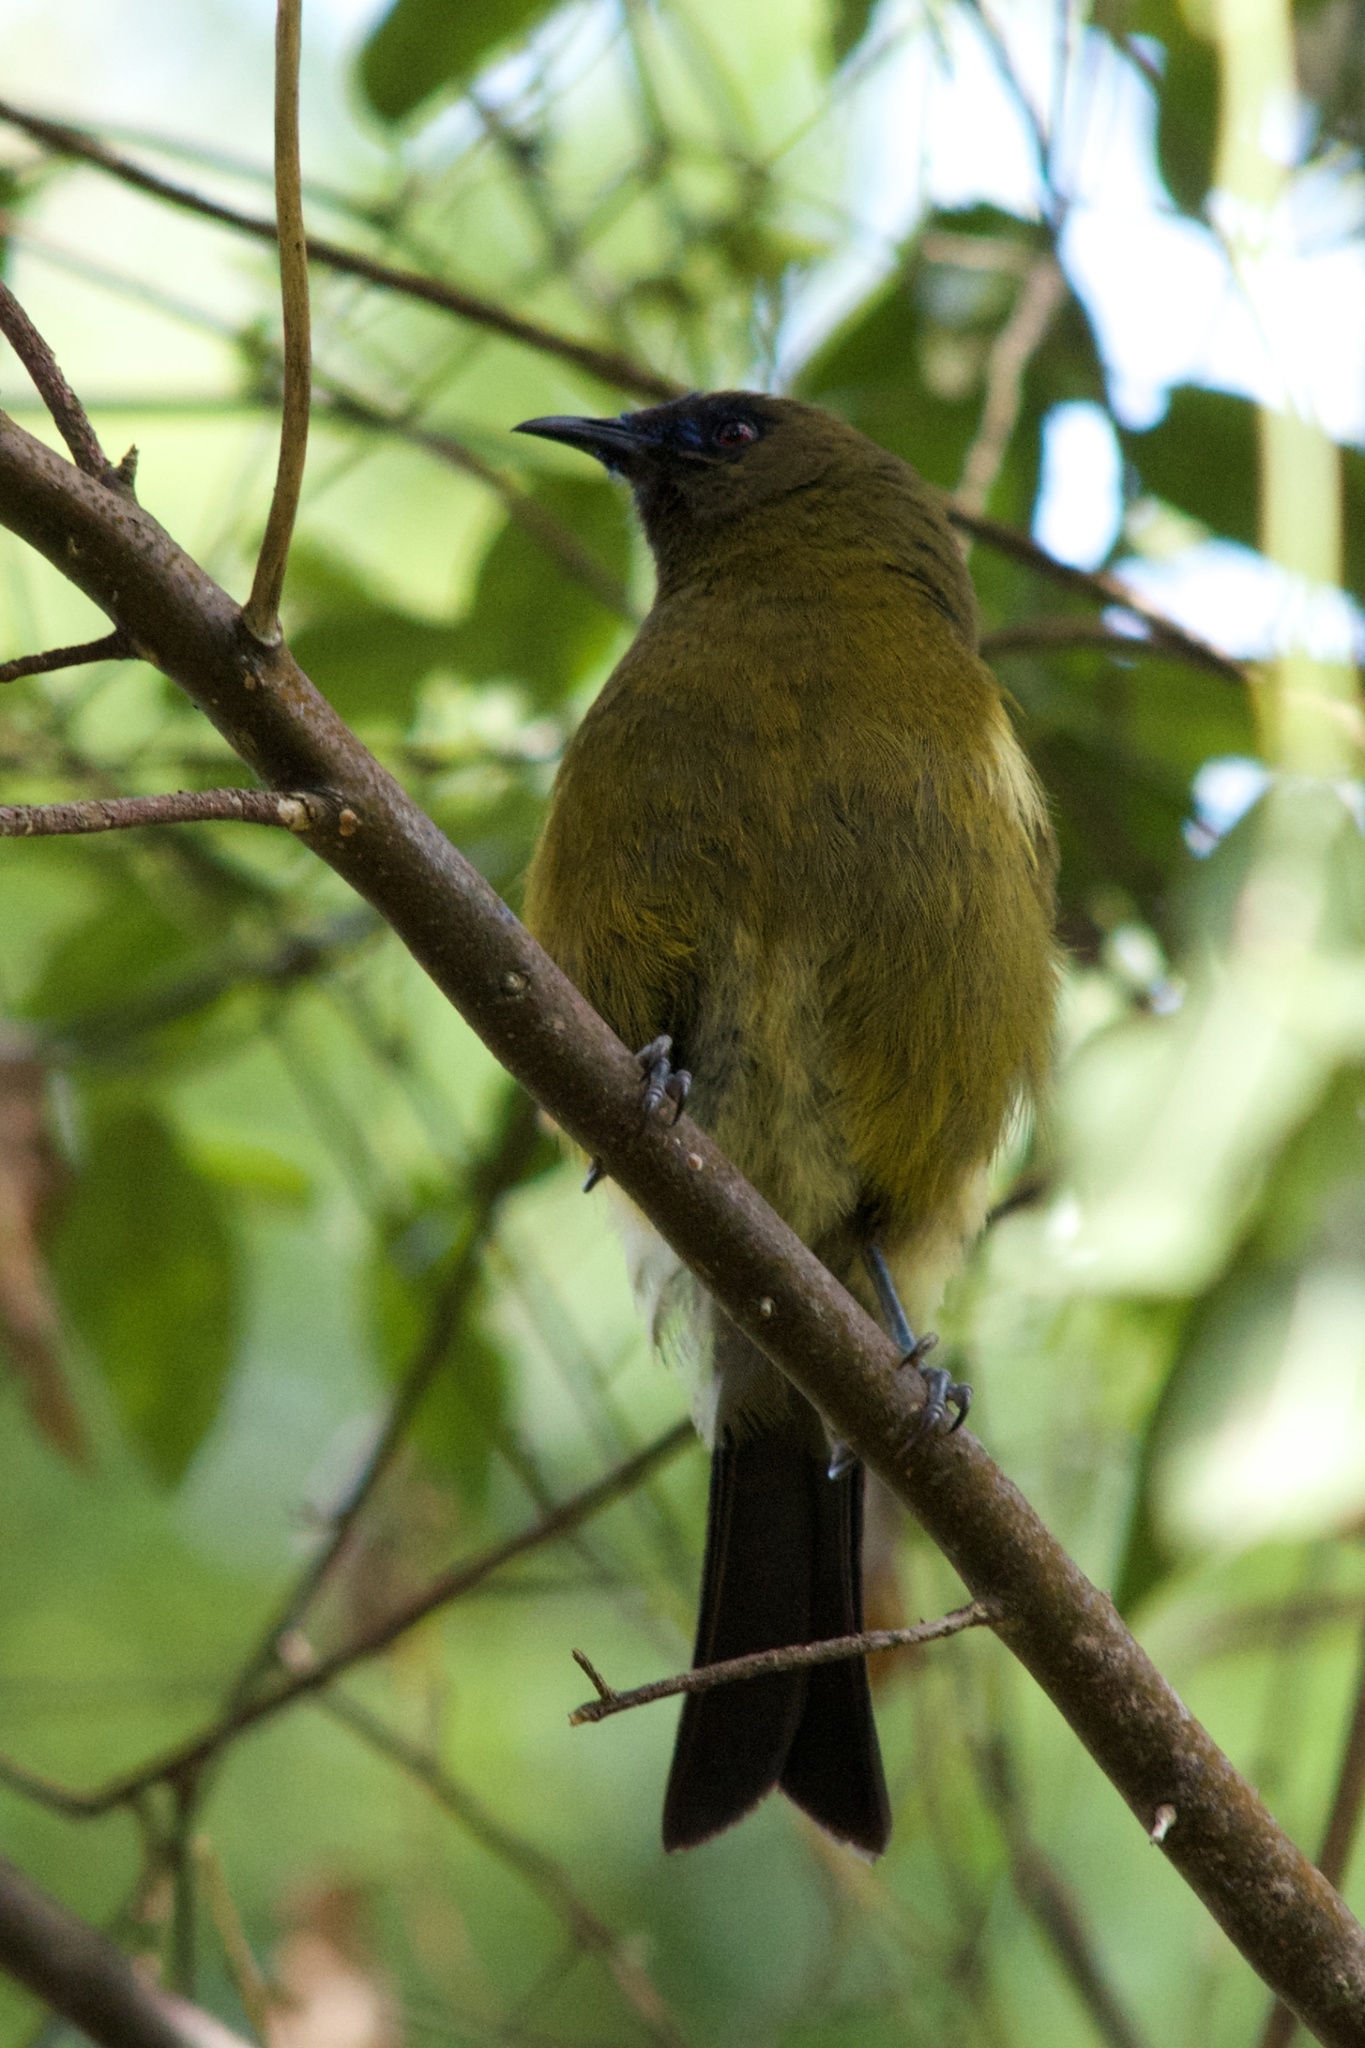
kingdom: Animalia
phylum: Chordata
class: Aves
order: Passeriformes
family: Meliphagidae
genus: Anthornis
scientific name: Anthornis melanura
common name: New zealand bellbird
